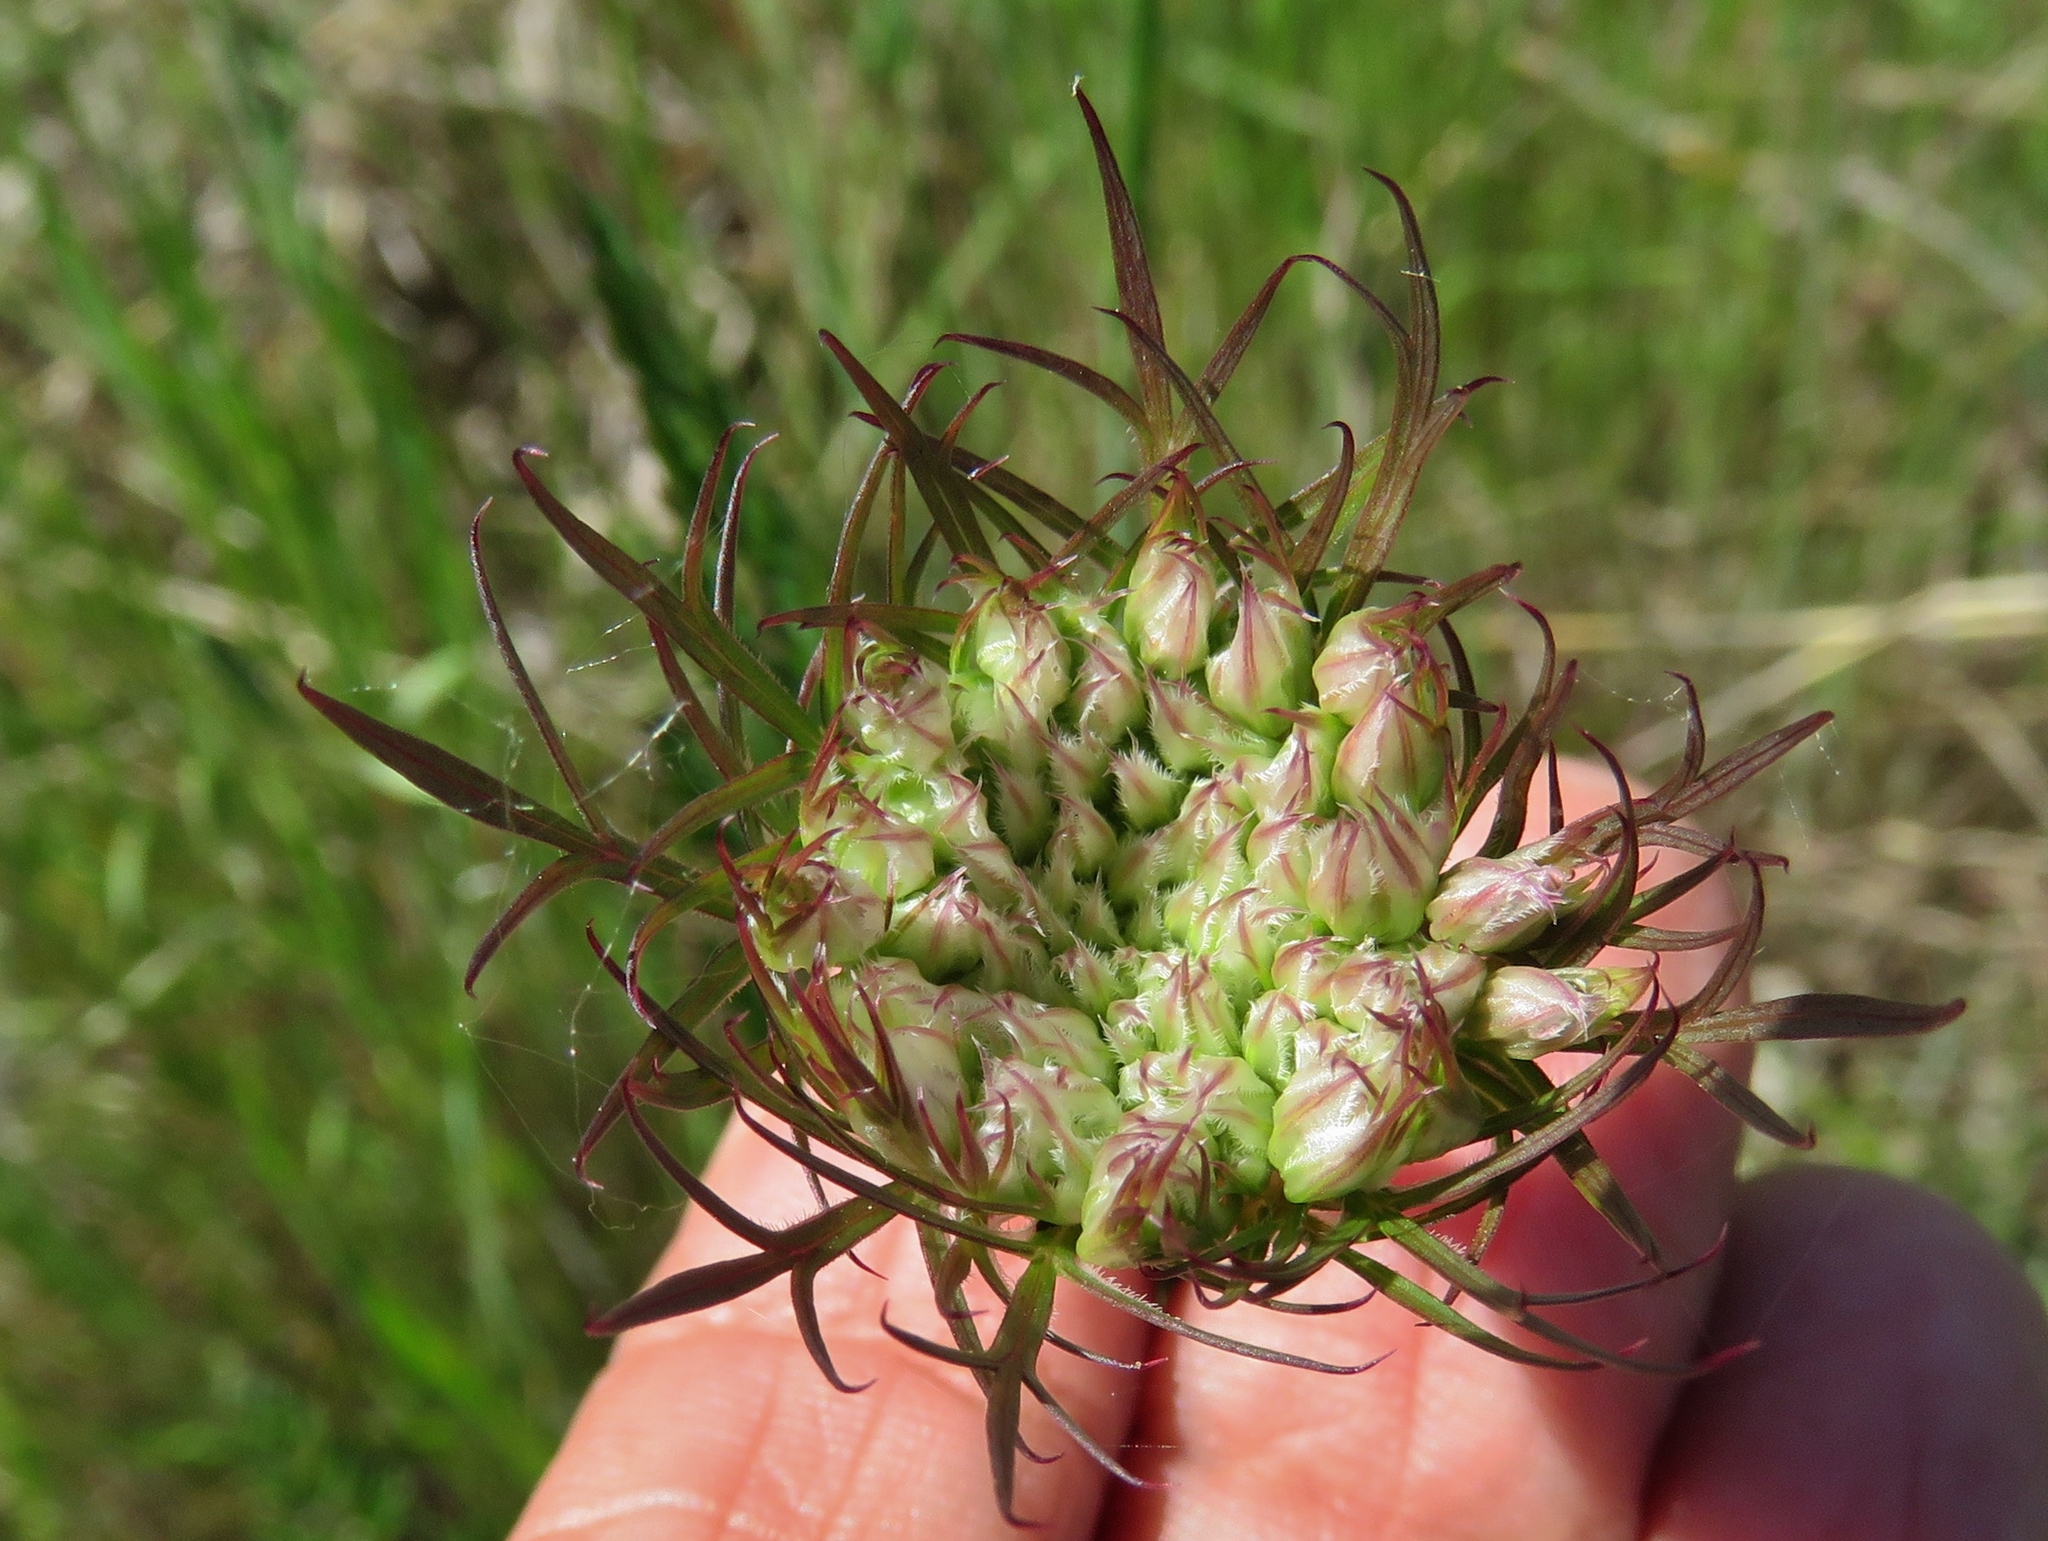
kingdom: Plantae
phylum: Tracheophyta
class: Magnoliopsida
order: Apiales
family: Apiaceae
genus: Daucus
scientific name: Daucus carota
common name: Wild carrot
